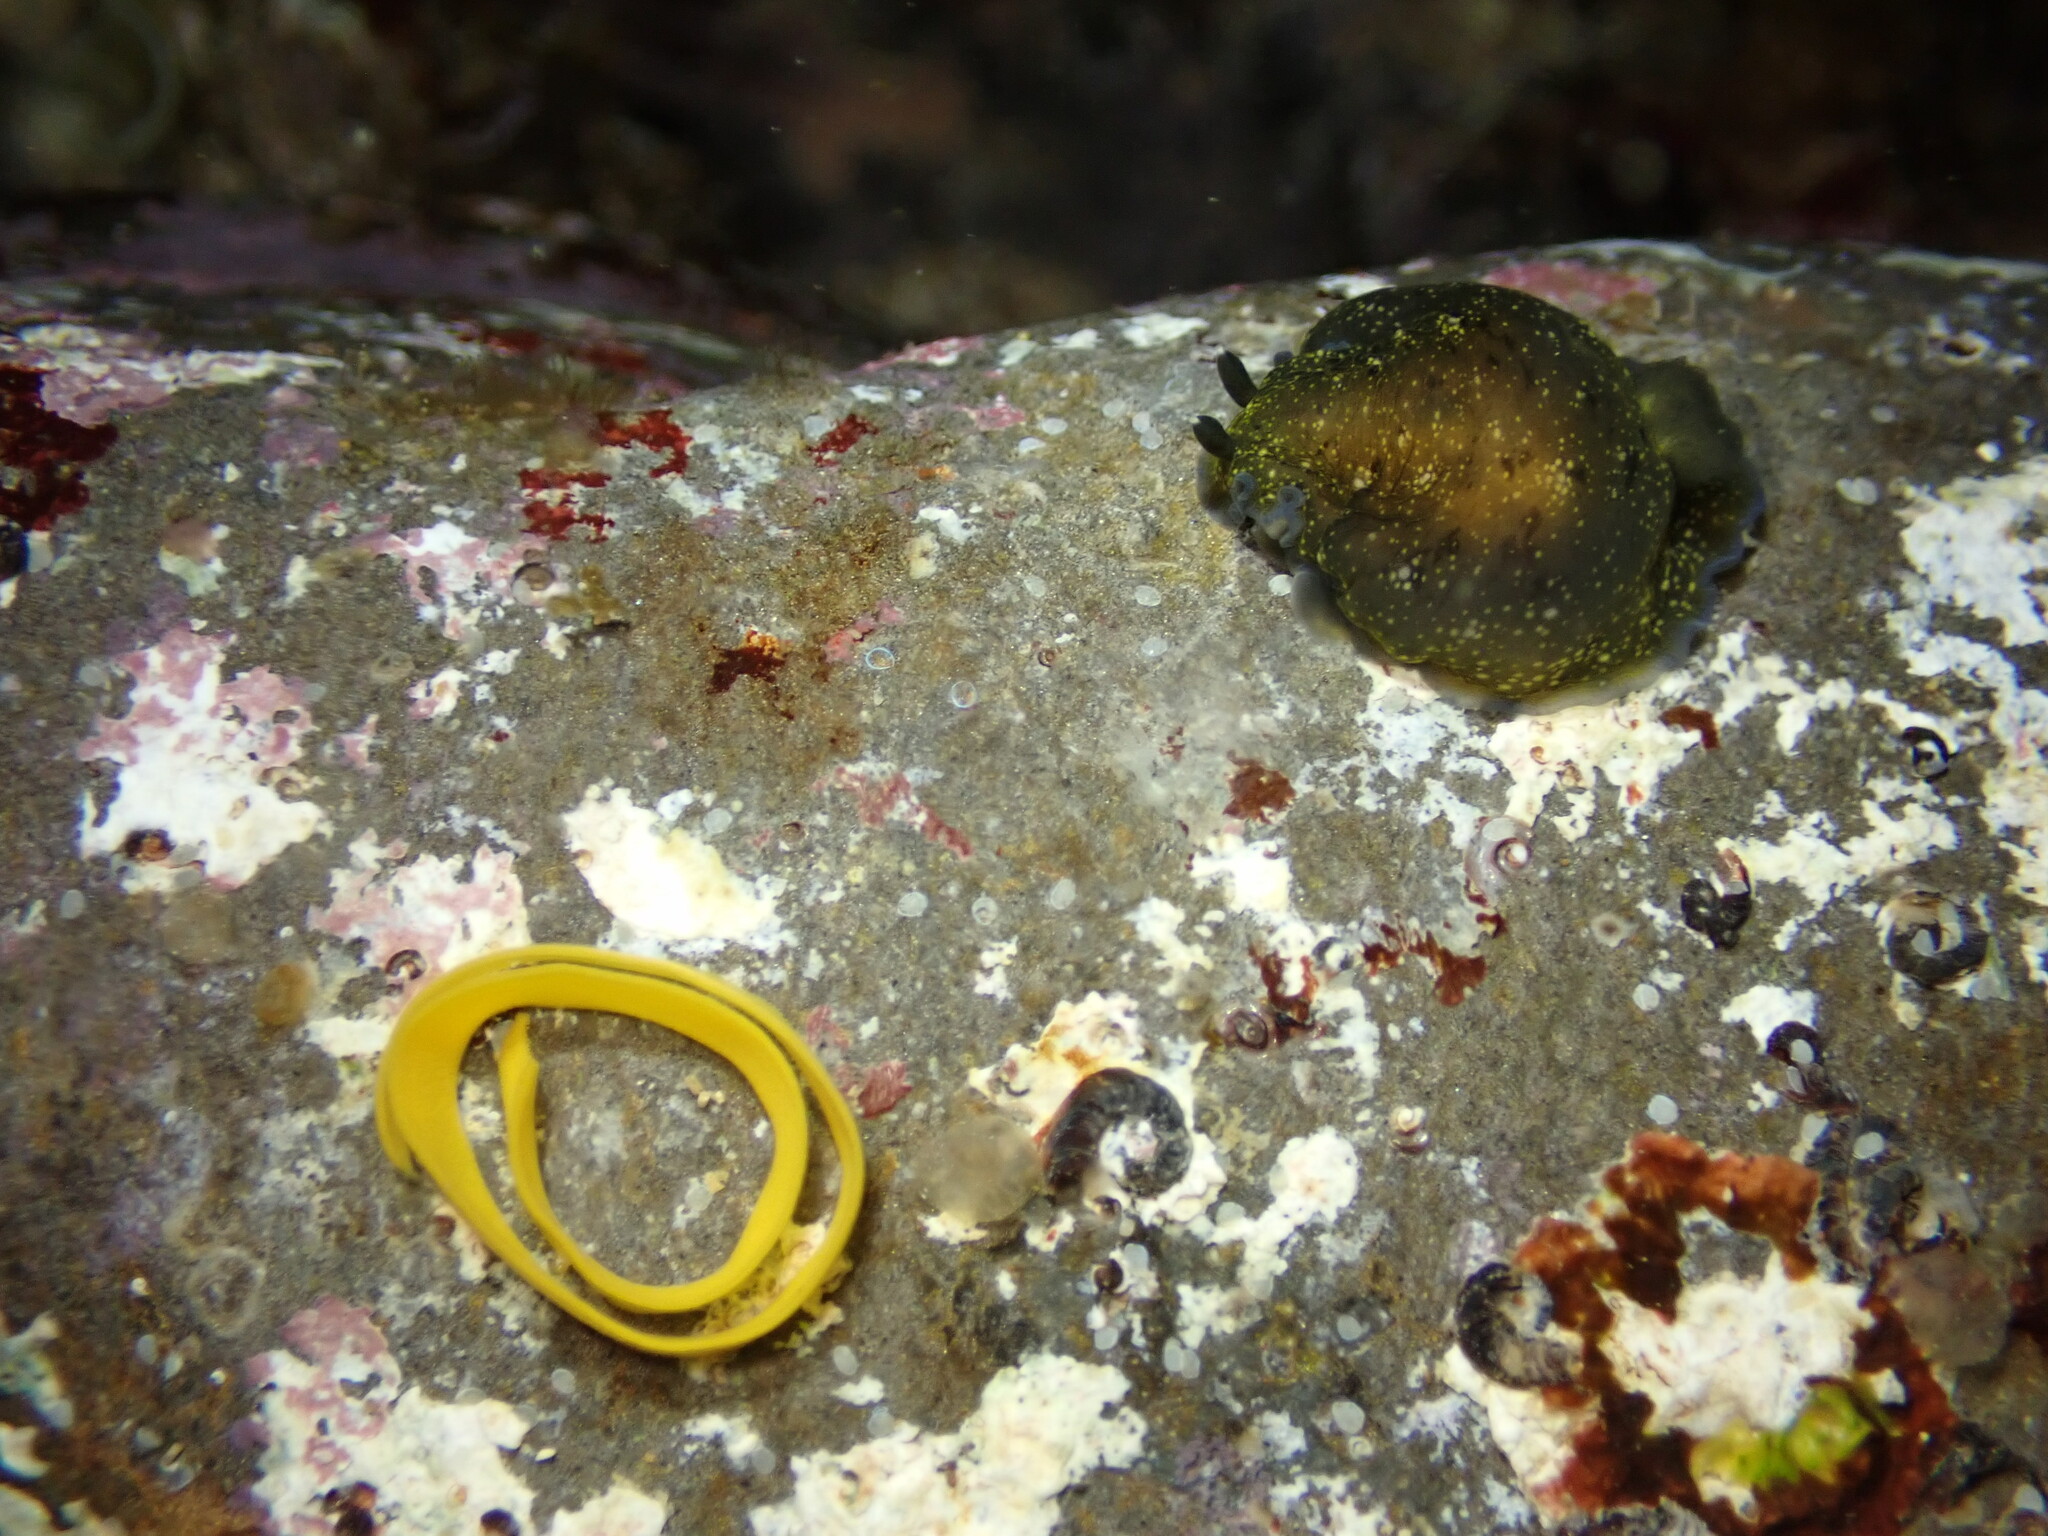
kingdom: Animalia
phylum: Mollusca
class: Gastropoda
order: Nudibranchia
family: Dendrodorididae
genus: Dendrodoris
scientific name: Dendrodoris nigra
